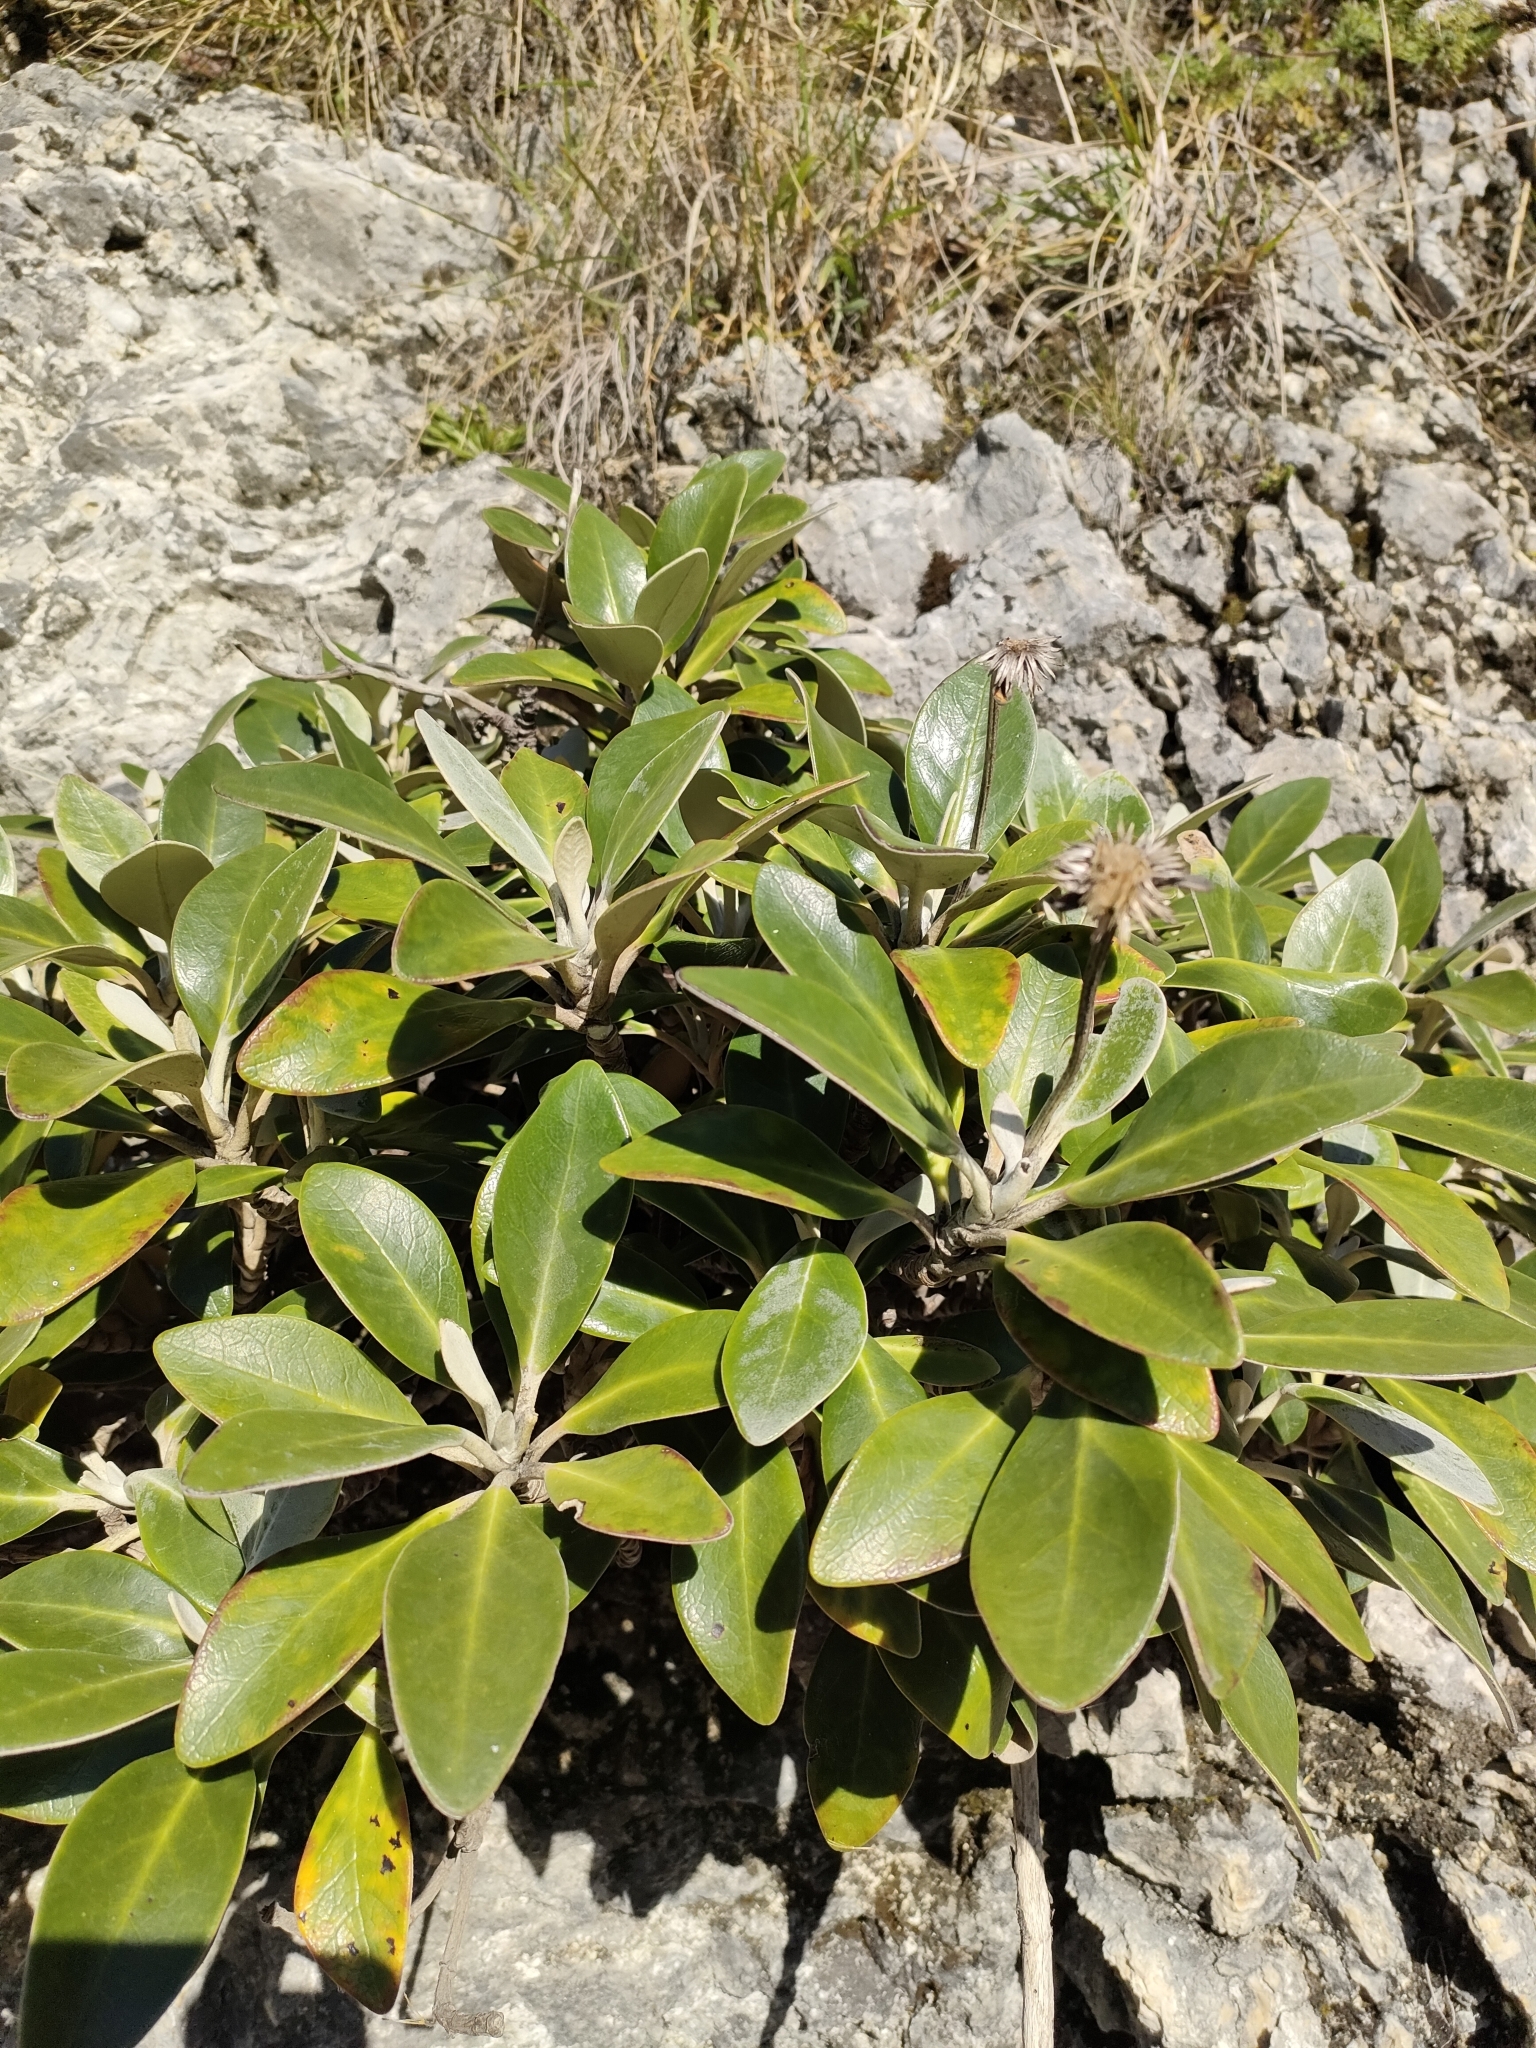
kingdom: Plantae
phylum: Tracheophyta
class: Magnoliopsida
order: Asterales
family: Asteraceae
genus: Pachystegia
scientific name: Pachystegia insignis
